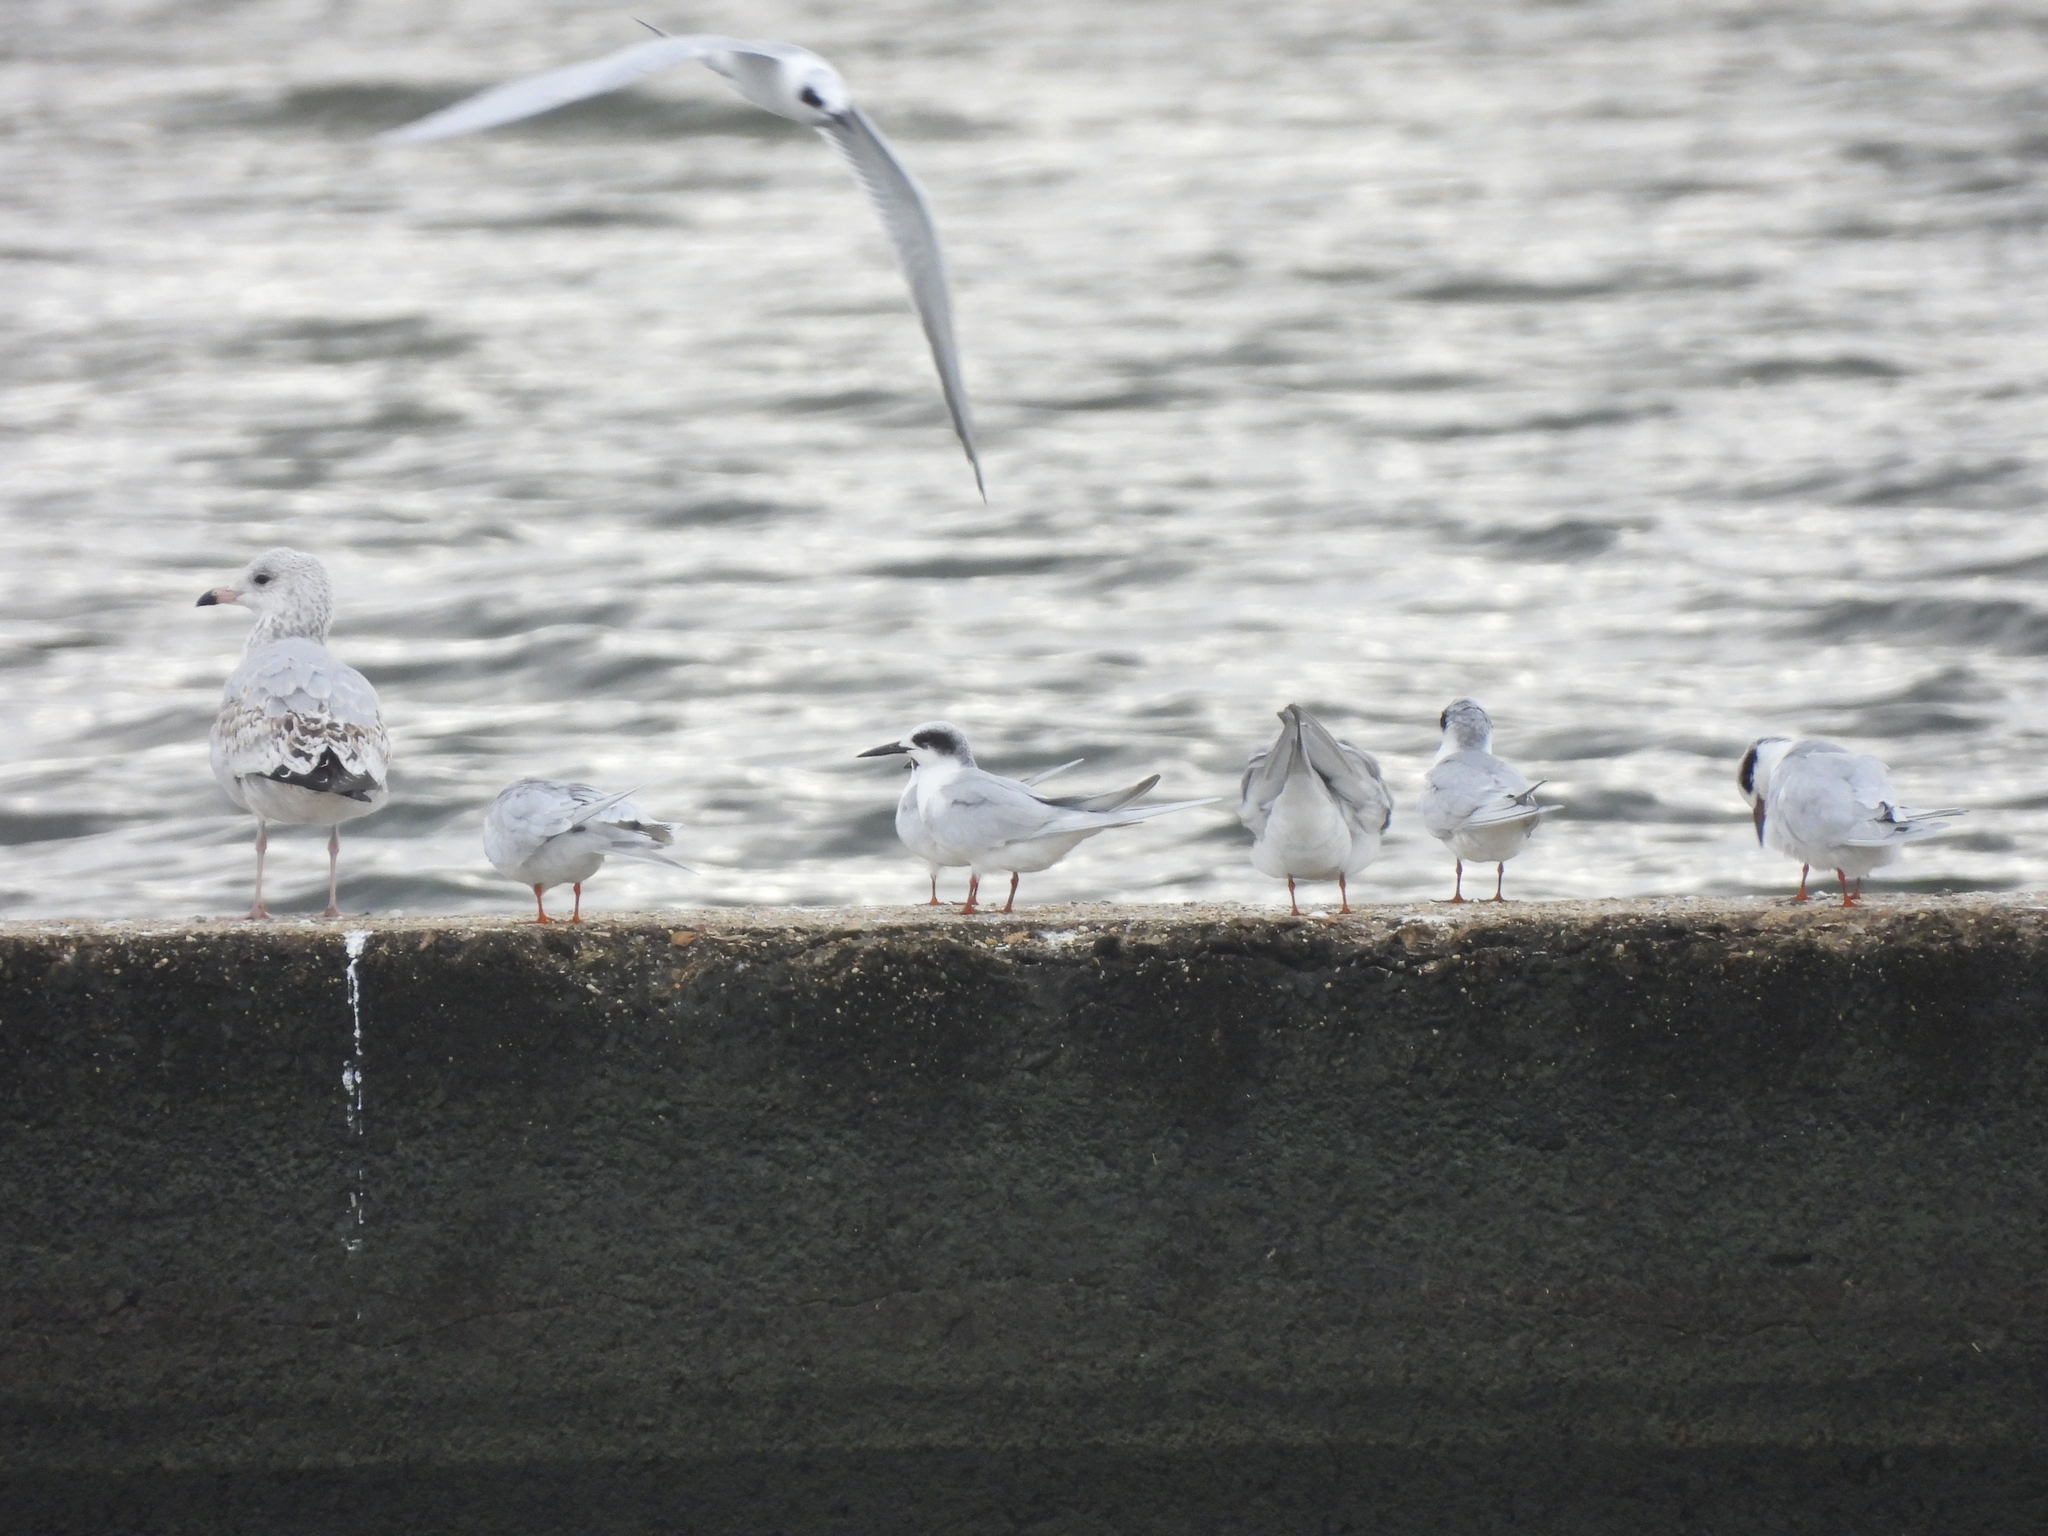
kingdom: Animalia
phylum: Chordata
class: Aves
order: Charadriiformes
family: Laridae
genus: Sterna
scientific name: Sterna forsteri
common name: Forster's tern
